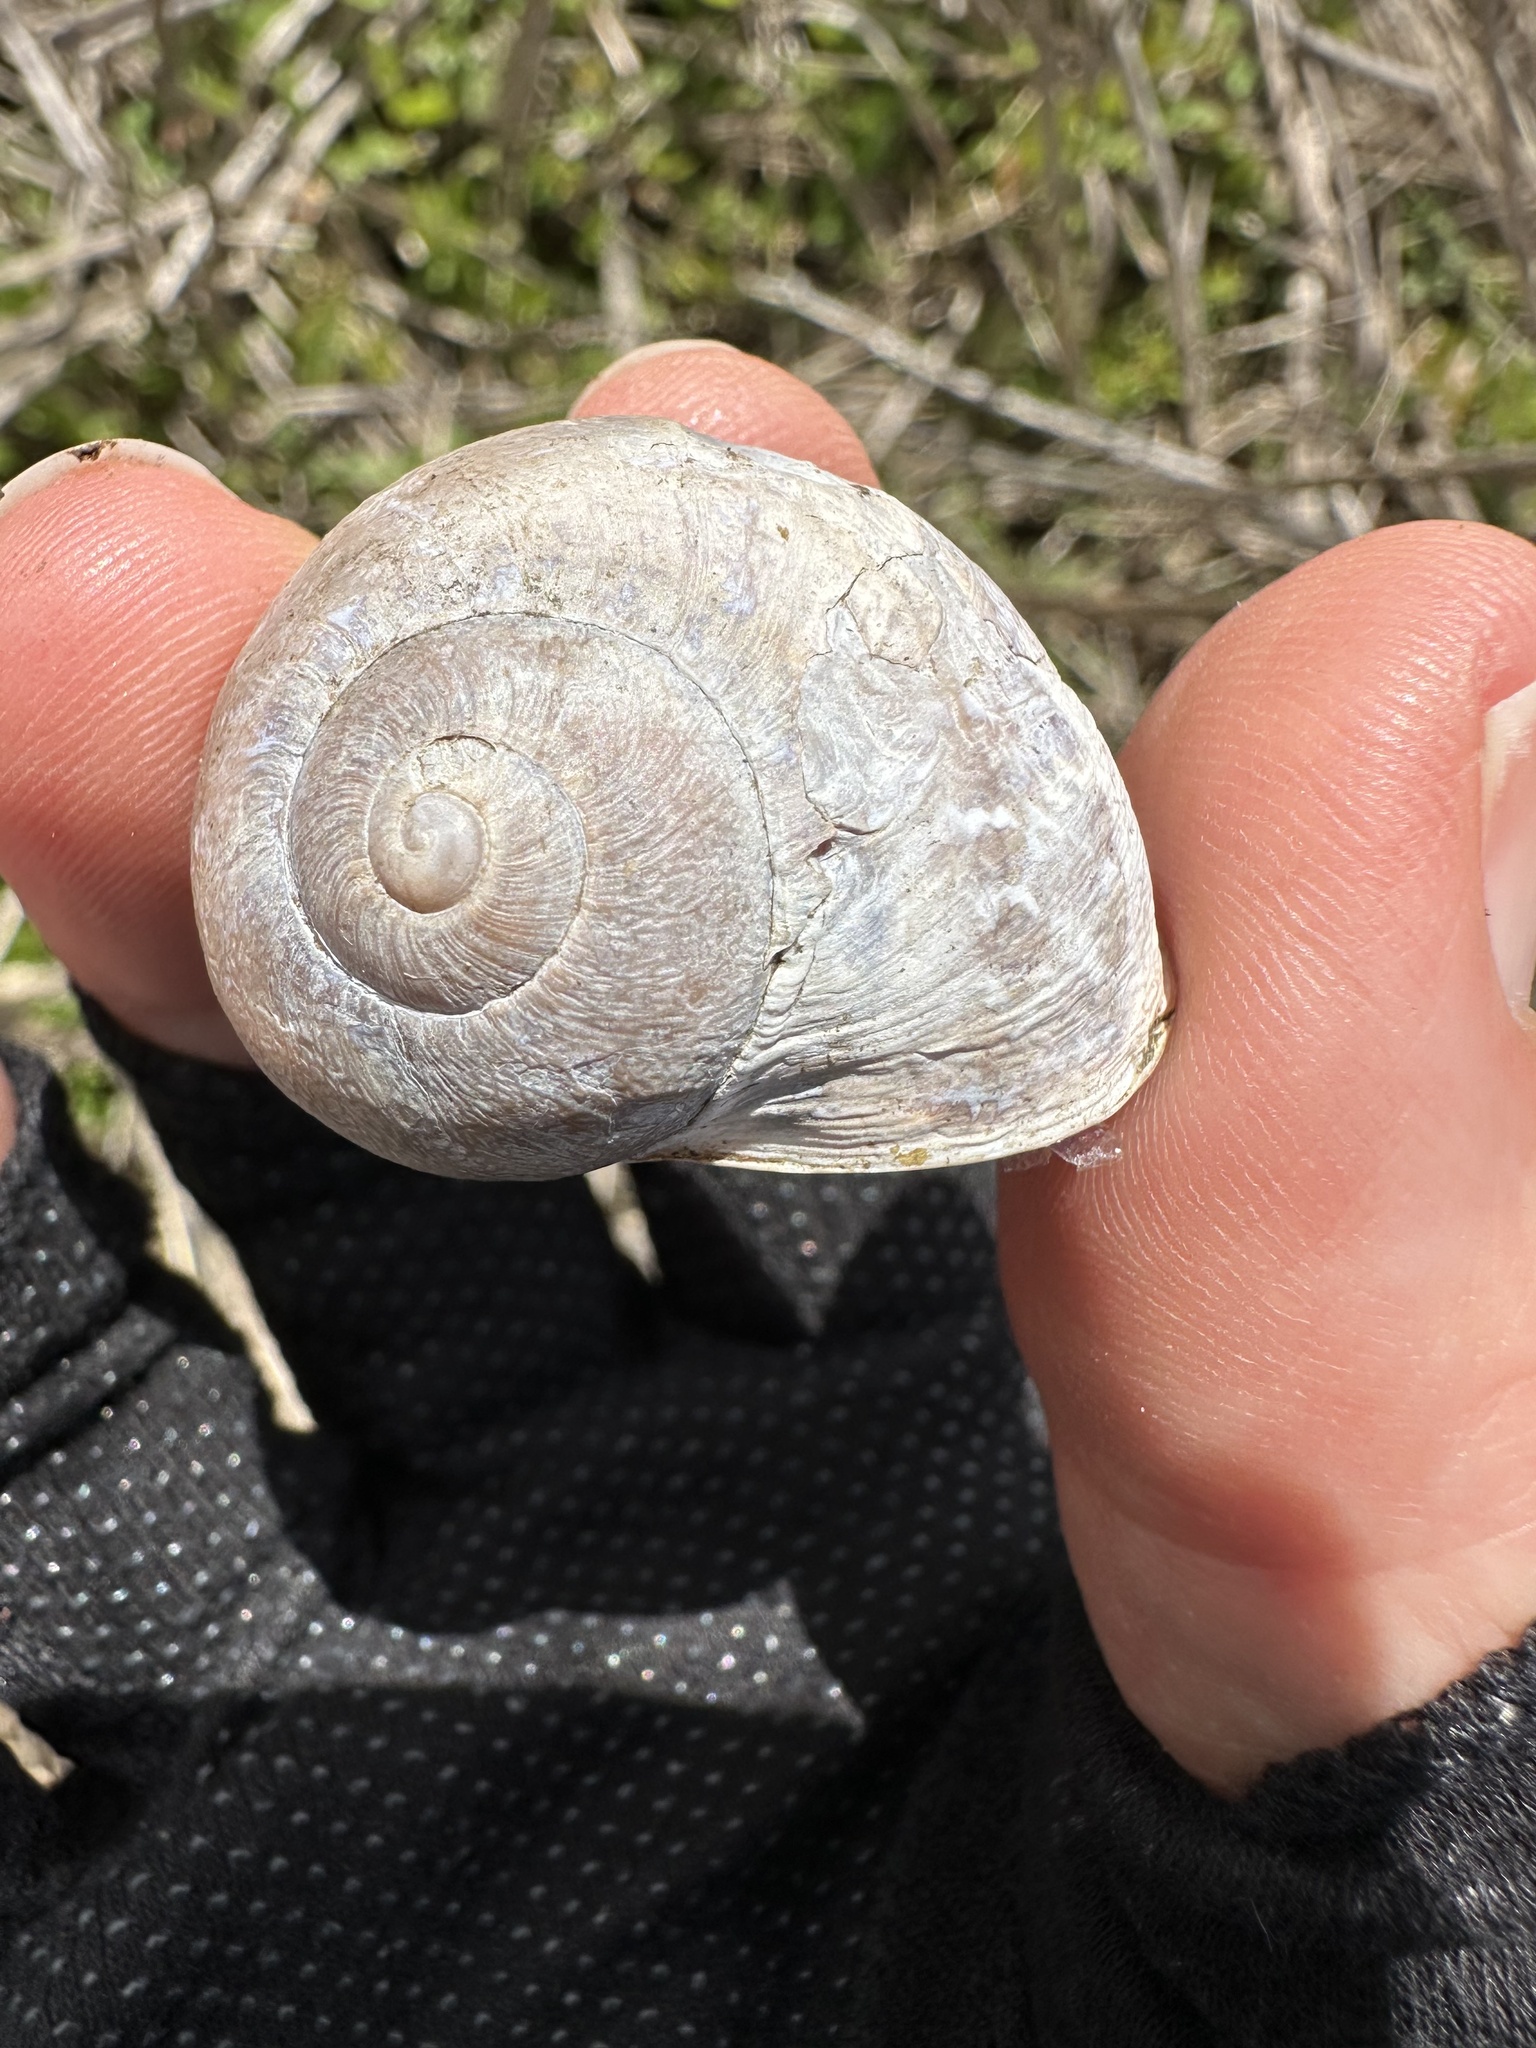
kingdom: Animalia
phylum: Mollusca
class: Gastropoda
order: Stylommatophora
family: Helicidae
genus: Cornu
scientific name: Cornu aspersum
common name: Brown garden snail
